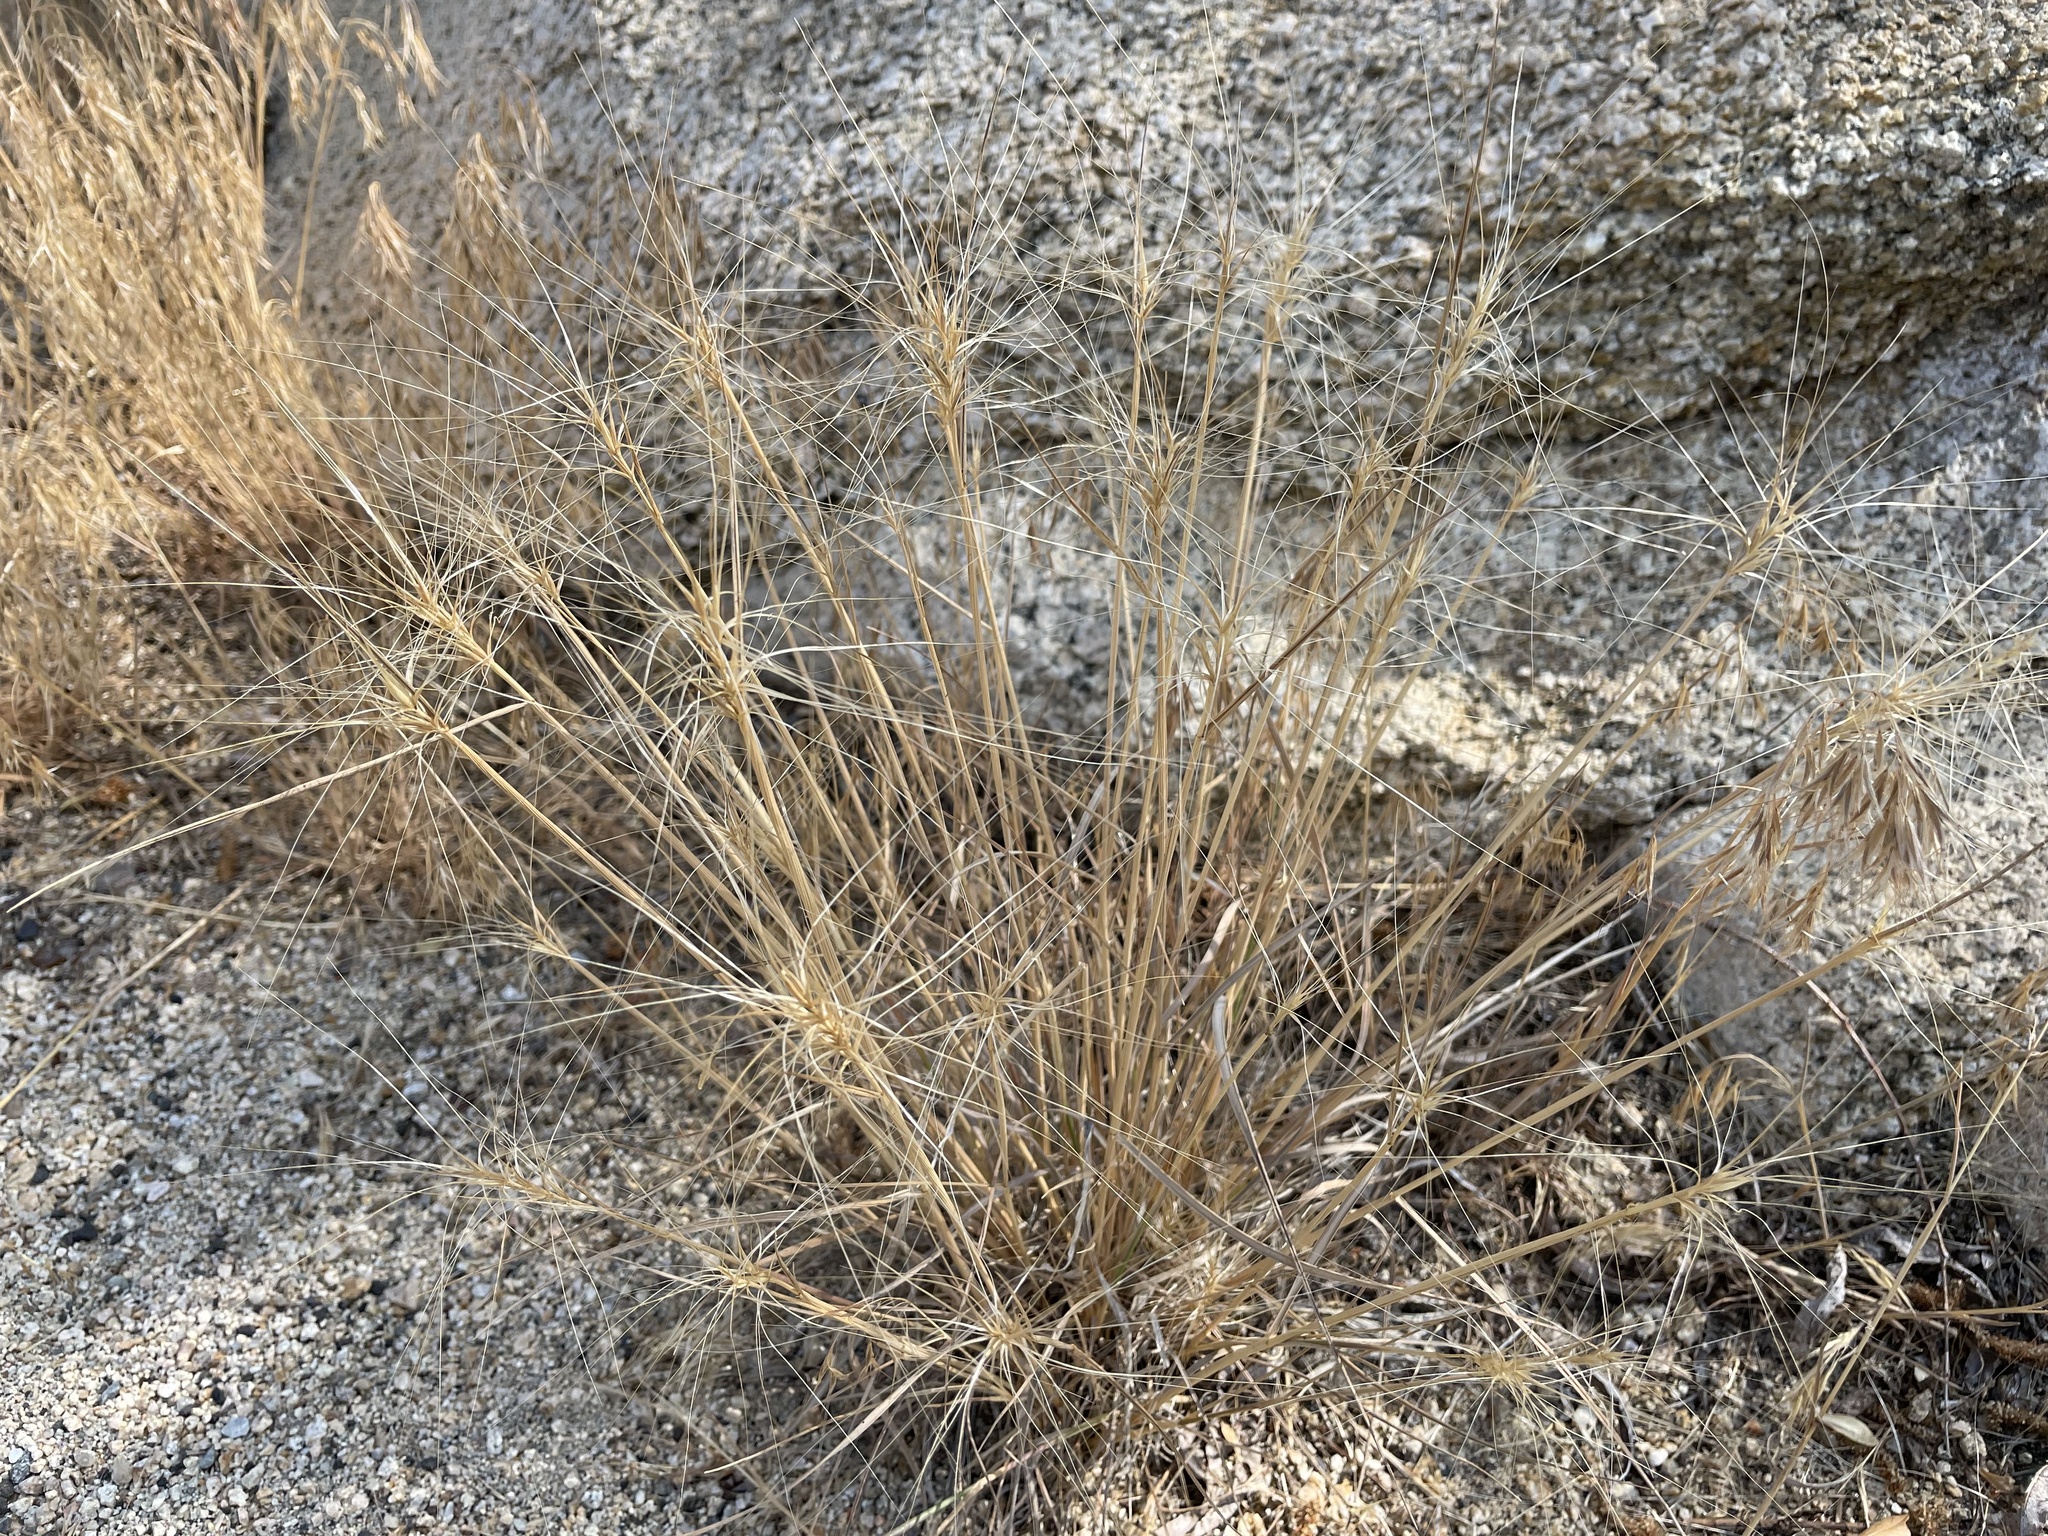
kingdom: Plantae
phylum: Tracheophyta
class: Liliopsida
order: Poales
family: Poaceae
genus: Elymus
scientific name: Elymus elymoides
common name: Bottlebrush squirreltail
